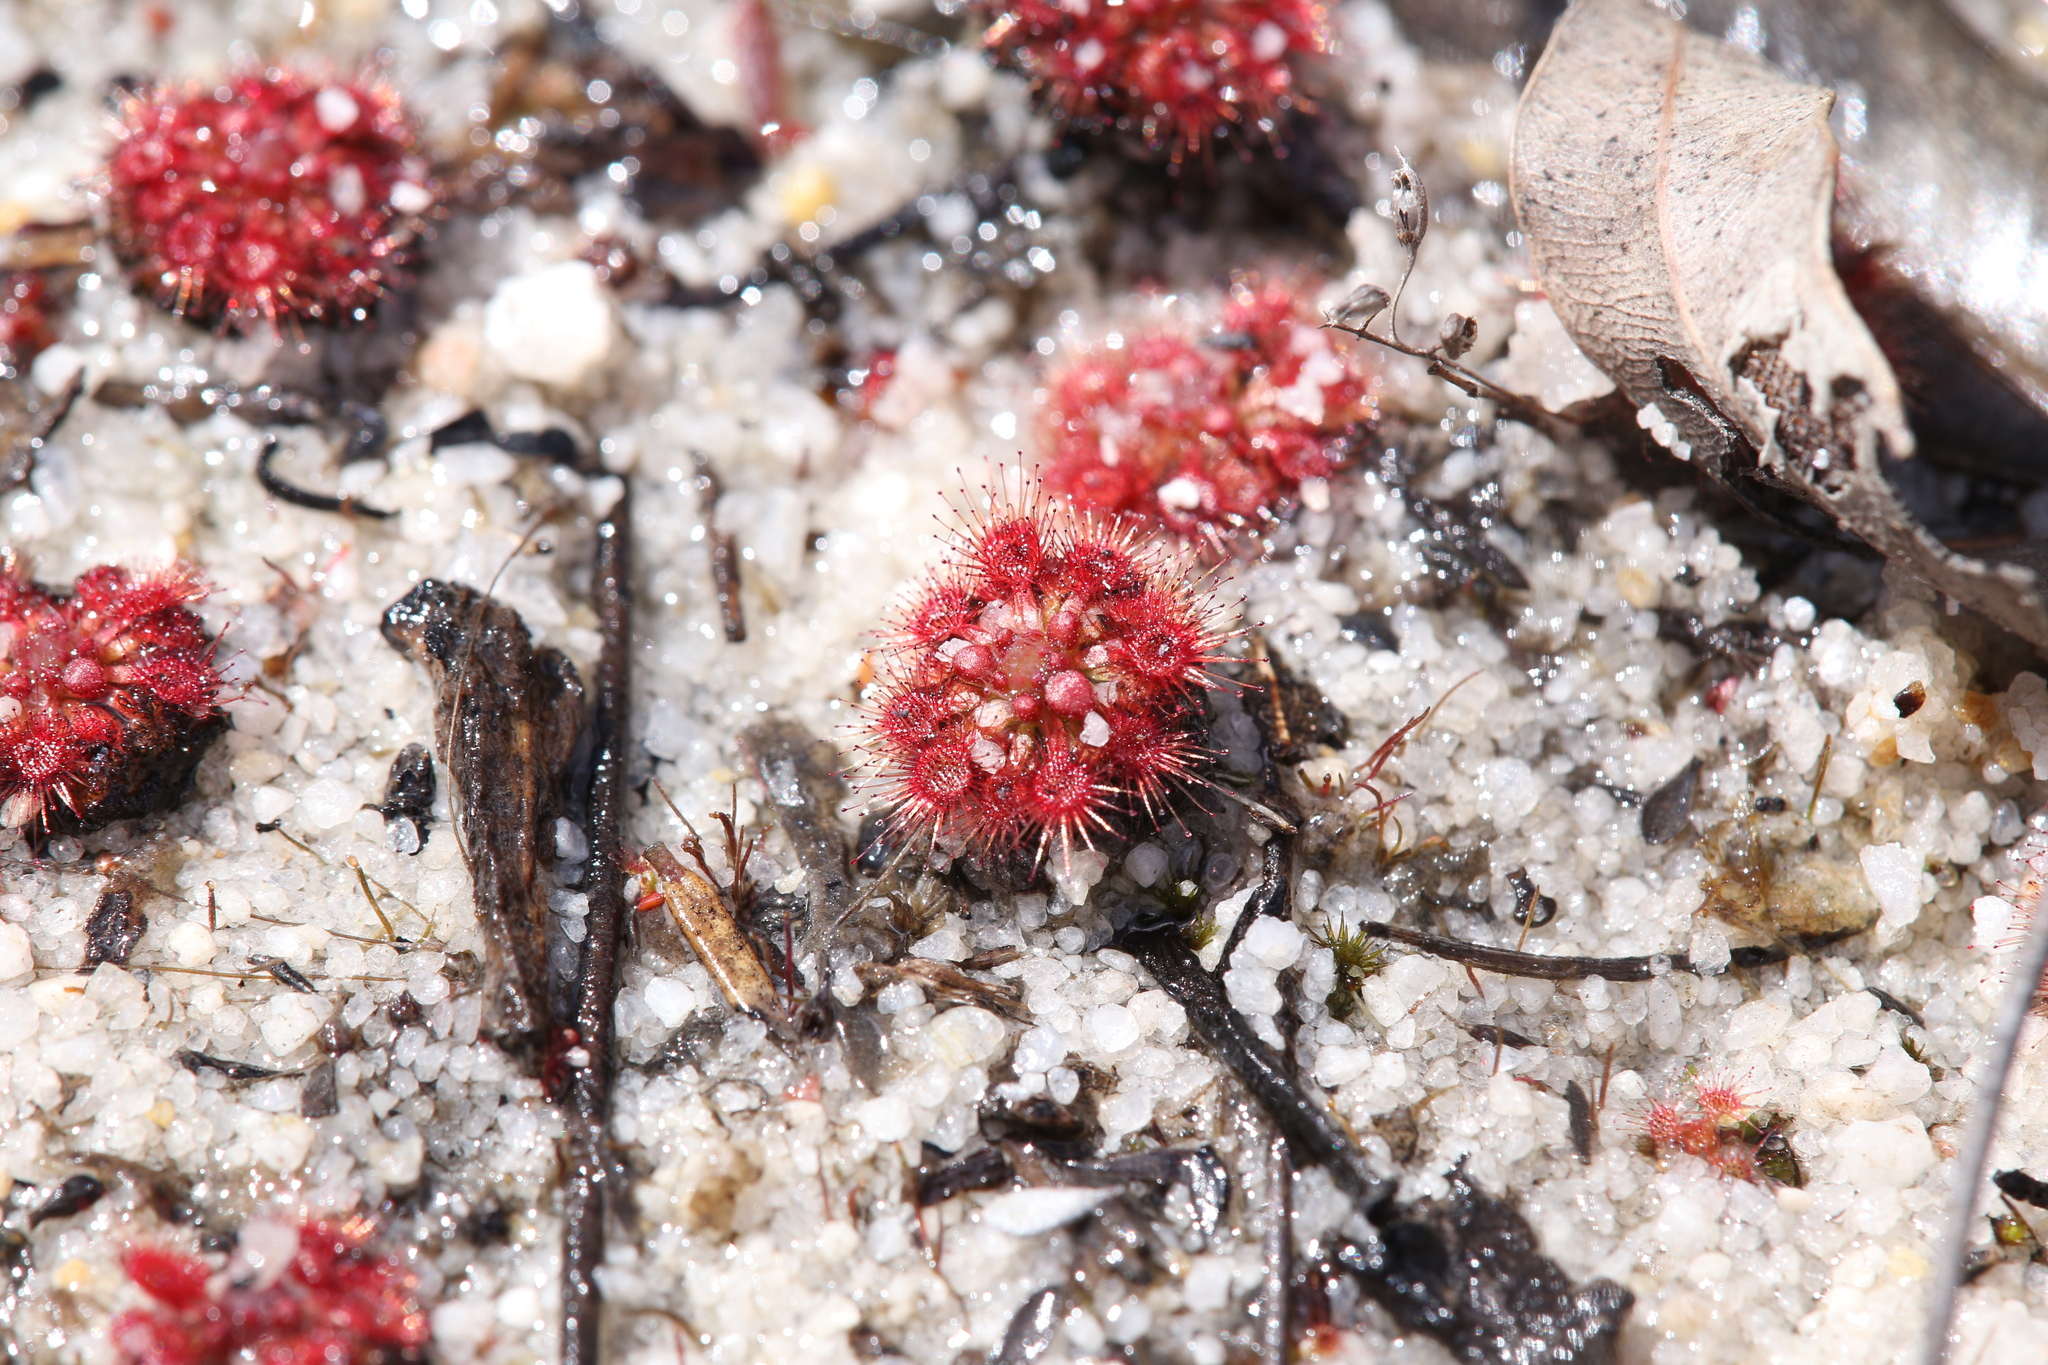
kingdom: Plantae
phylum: Tracheophyta
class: Magnoliopsida
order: Caryophyllales
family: Droseraceae
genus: Drosera
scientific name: Drosera nitidula
